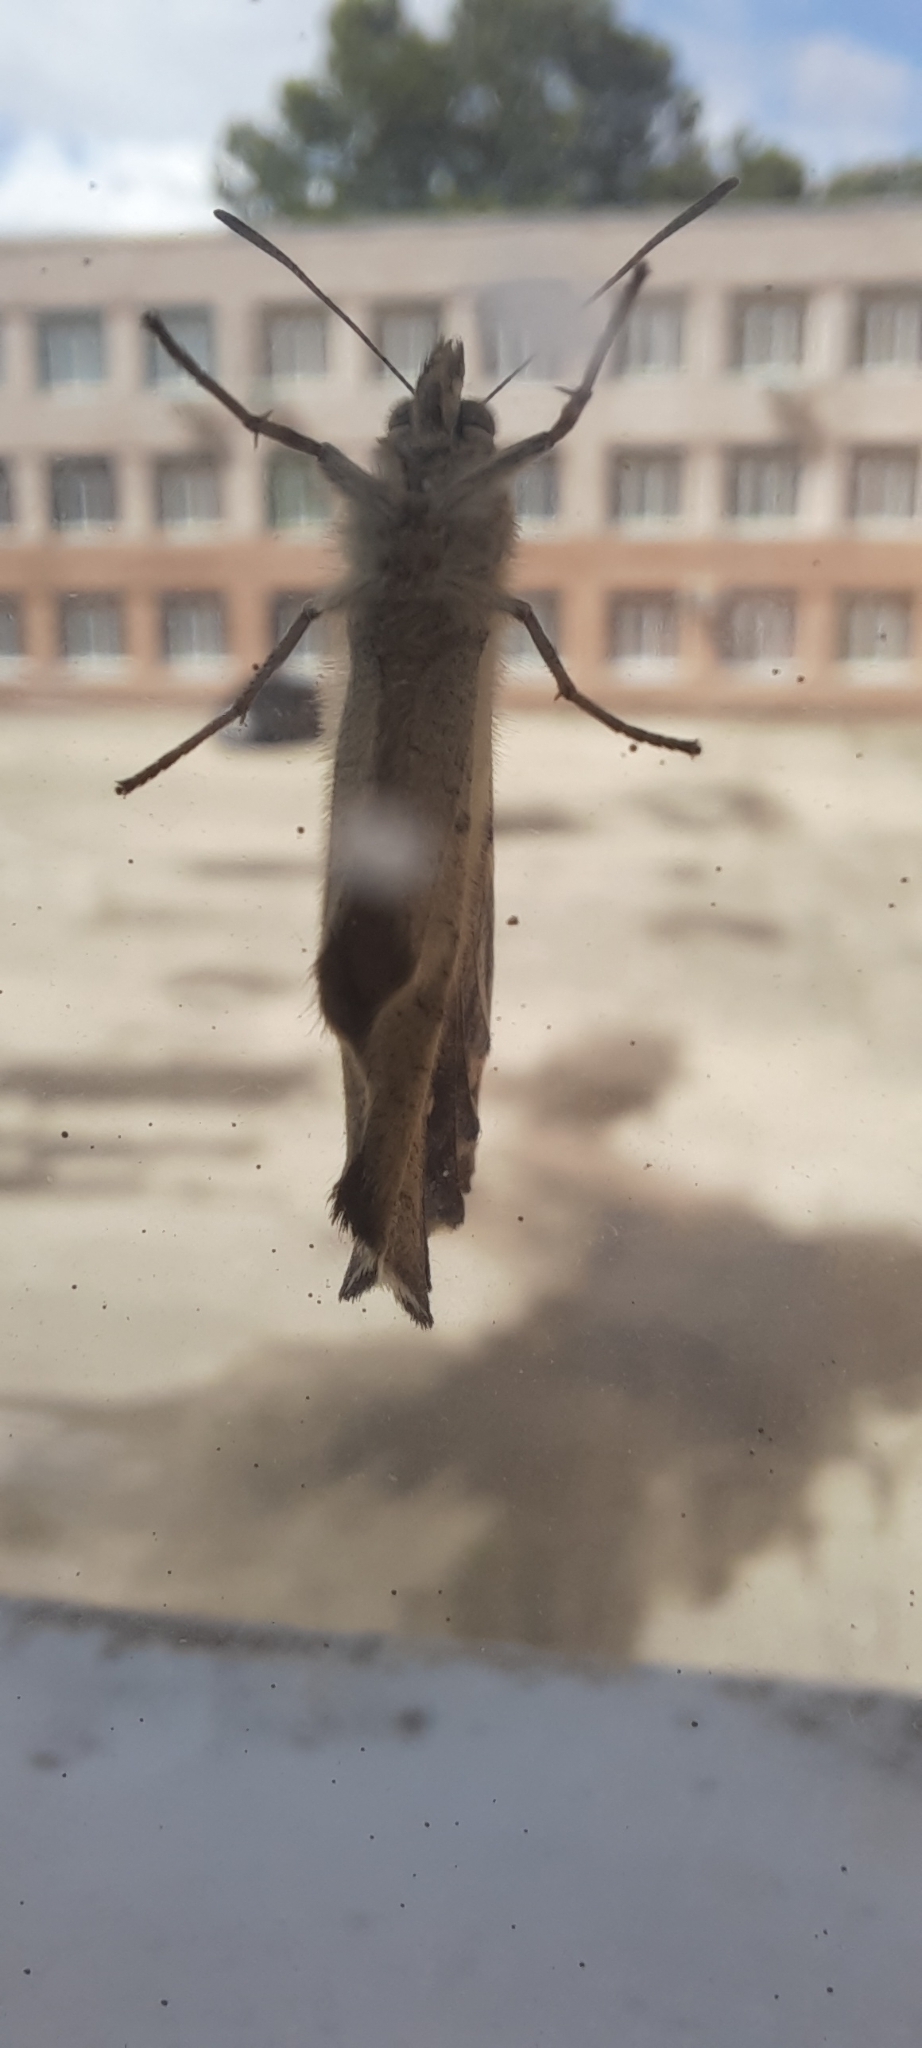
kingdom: Animalia
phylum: Arthropoda
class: Insecta
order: Lepidoptera
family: Nymphalidae
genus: Pararge
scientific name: Pararge aegeria
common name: Speckled wood
